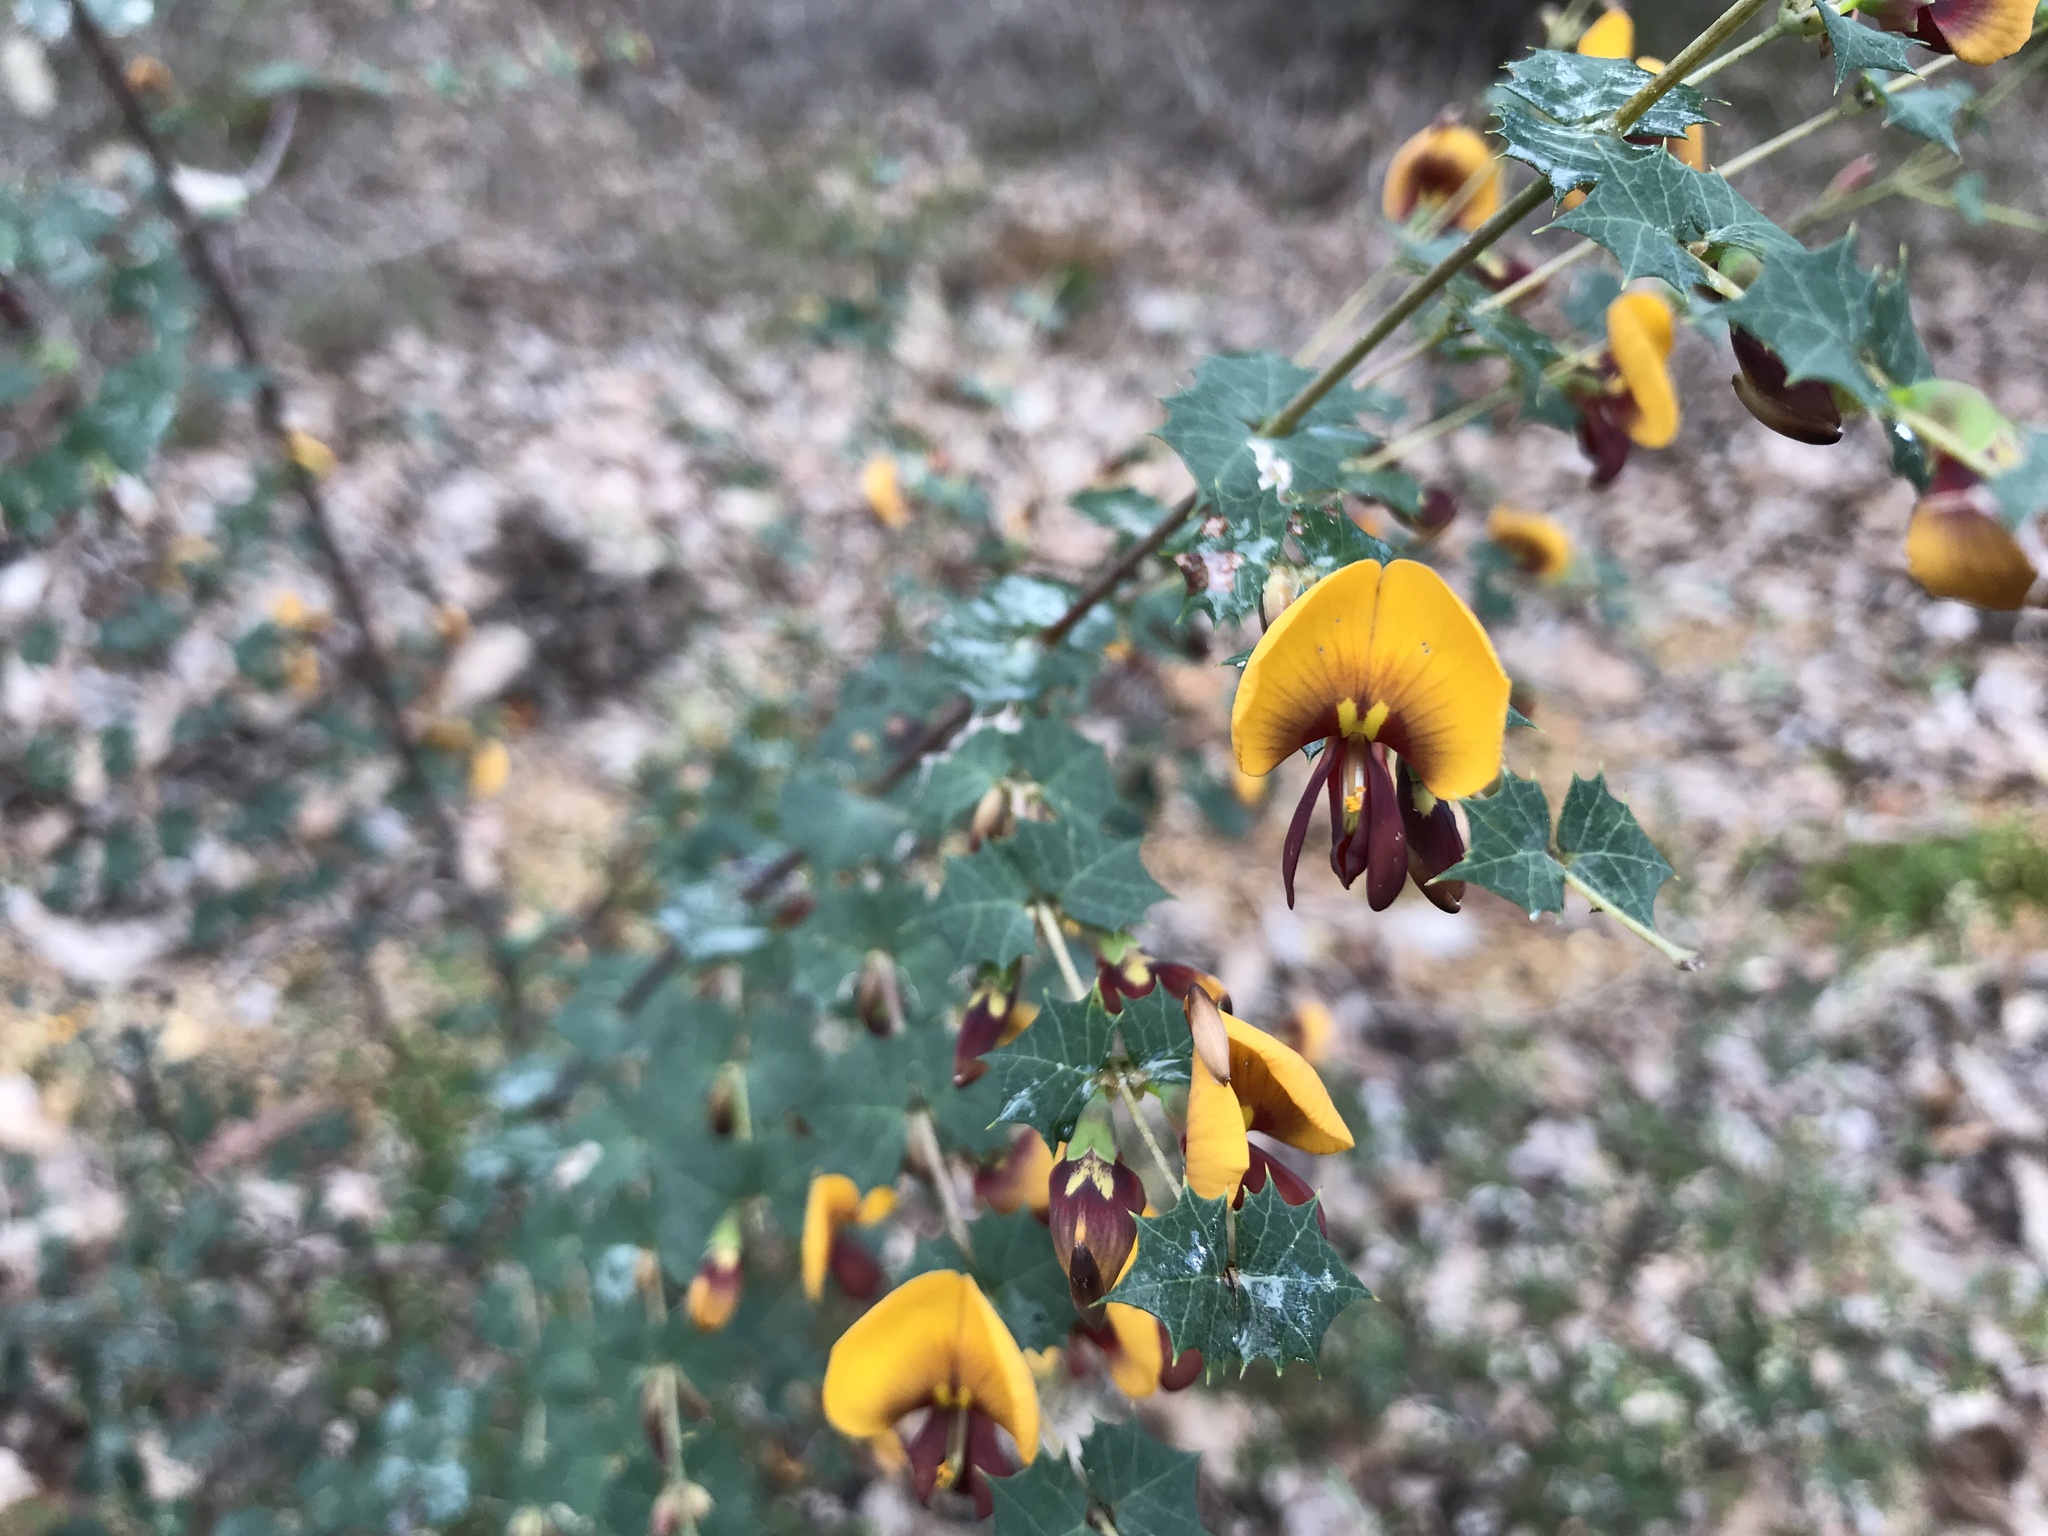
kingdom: Plantae
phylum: Tracheophyta
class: Magnoliopsida
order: Fabales
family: Fabaceae
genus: Bossiaea
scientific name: Bossiaea aquifolium
